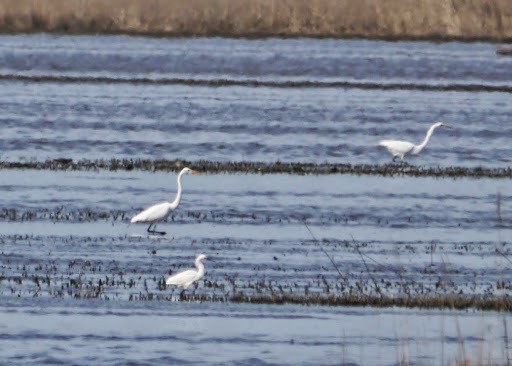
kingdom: Animalia
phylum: Chordata
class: Aves
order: Pelecaniformes
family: Ardeidae
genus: Ardea
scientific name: Ardea alba
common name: Great egret
